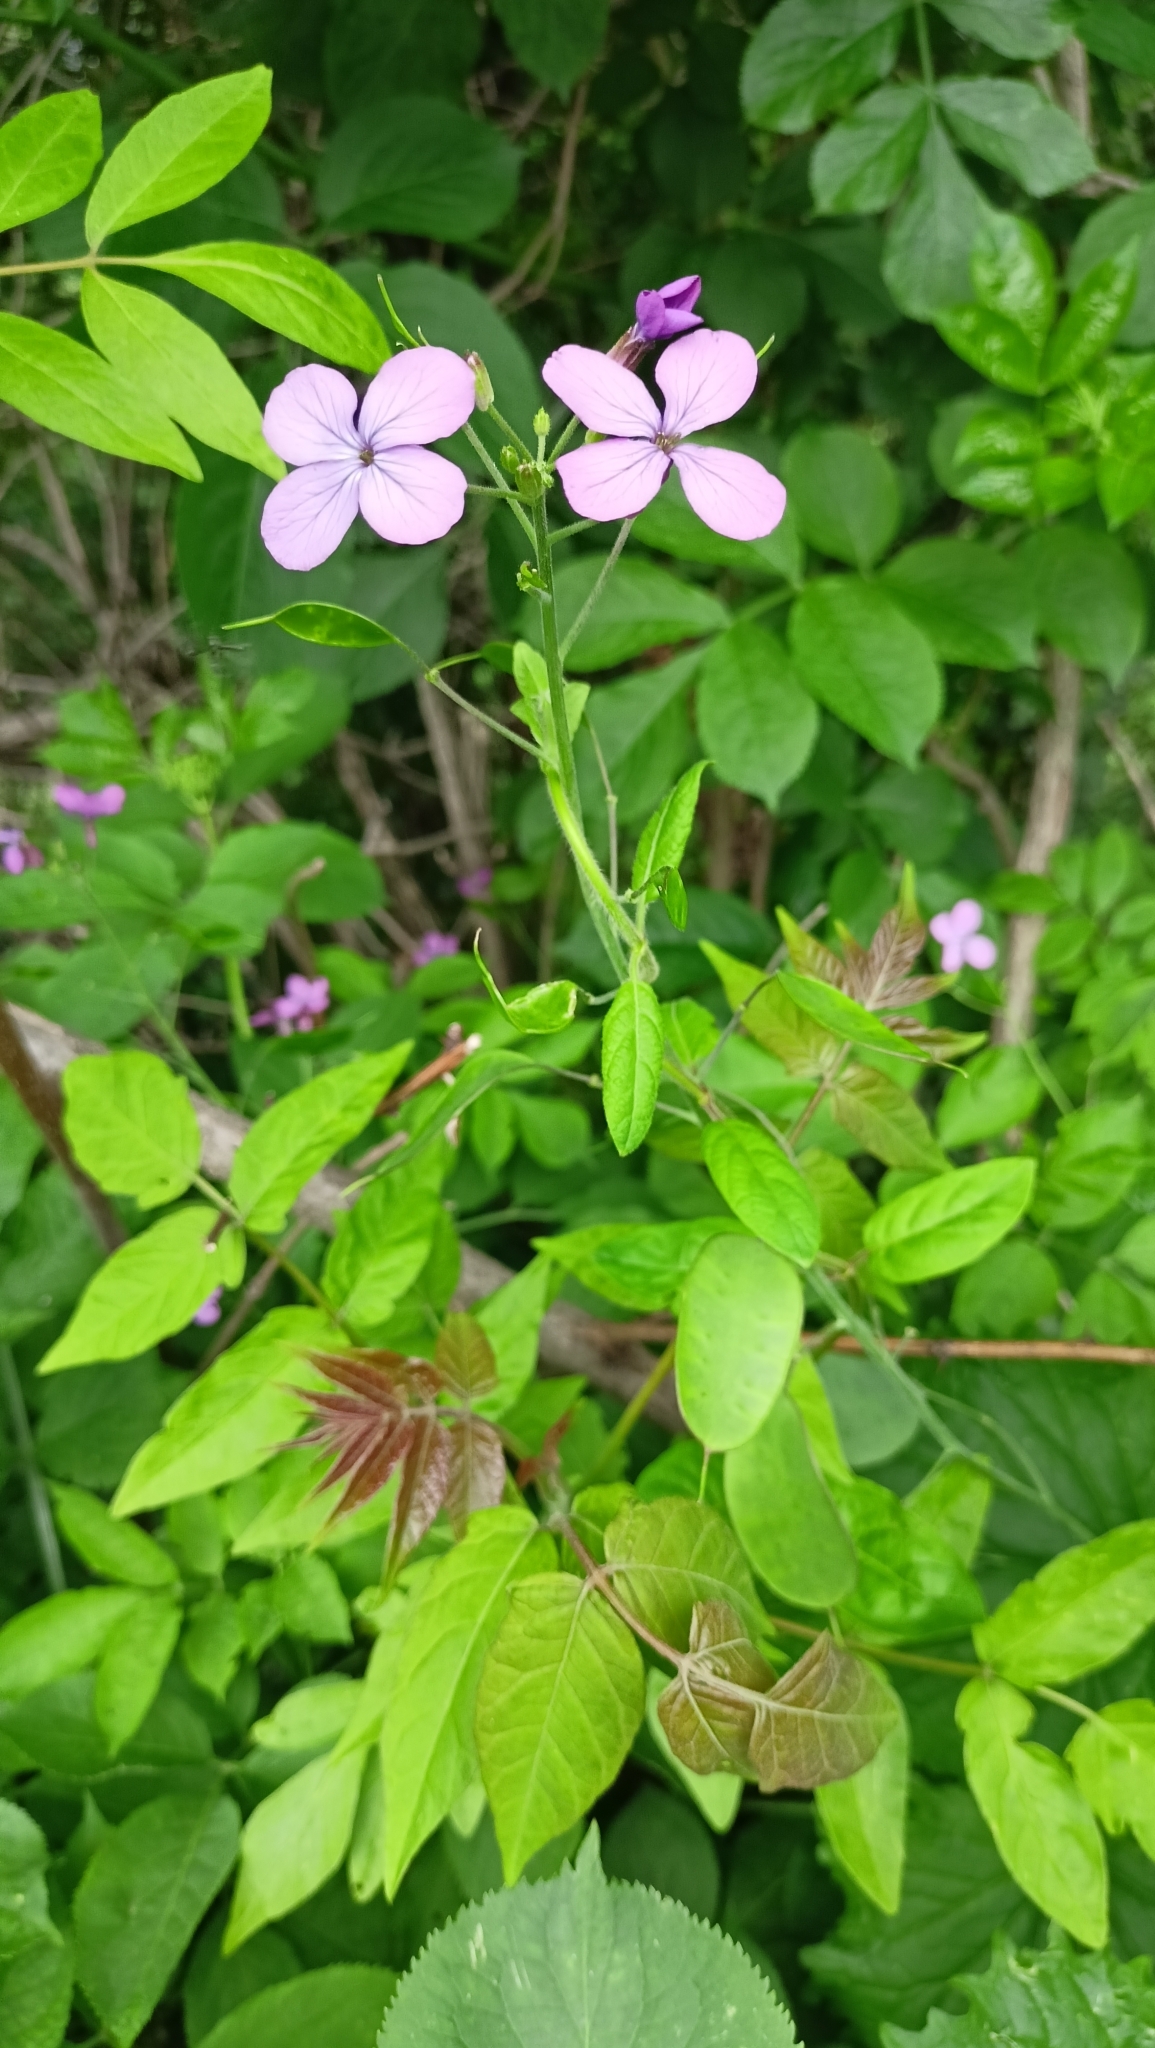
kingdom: Plantae
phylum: Tracheophyta
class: Magnoliopsida
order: Brassicales
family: Brassicaceae
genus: Lunaria
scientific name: Lunaria annua
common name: Honesty
